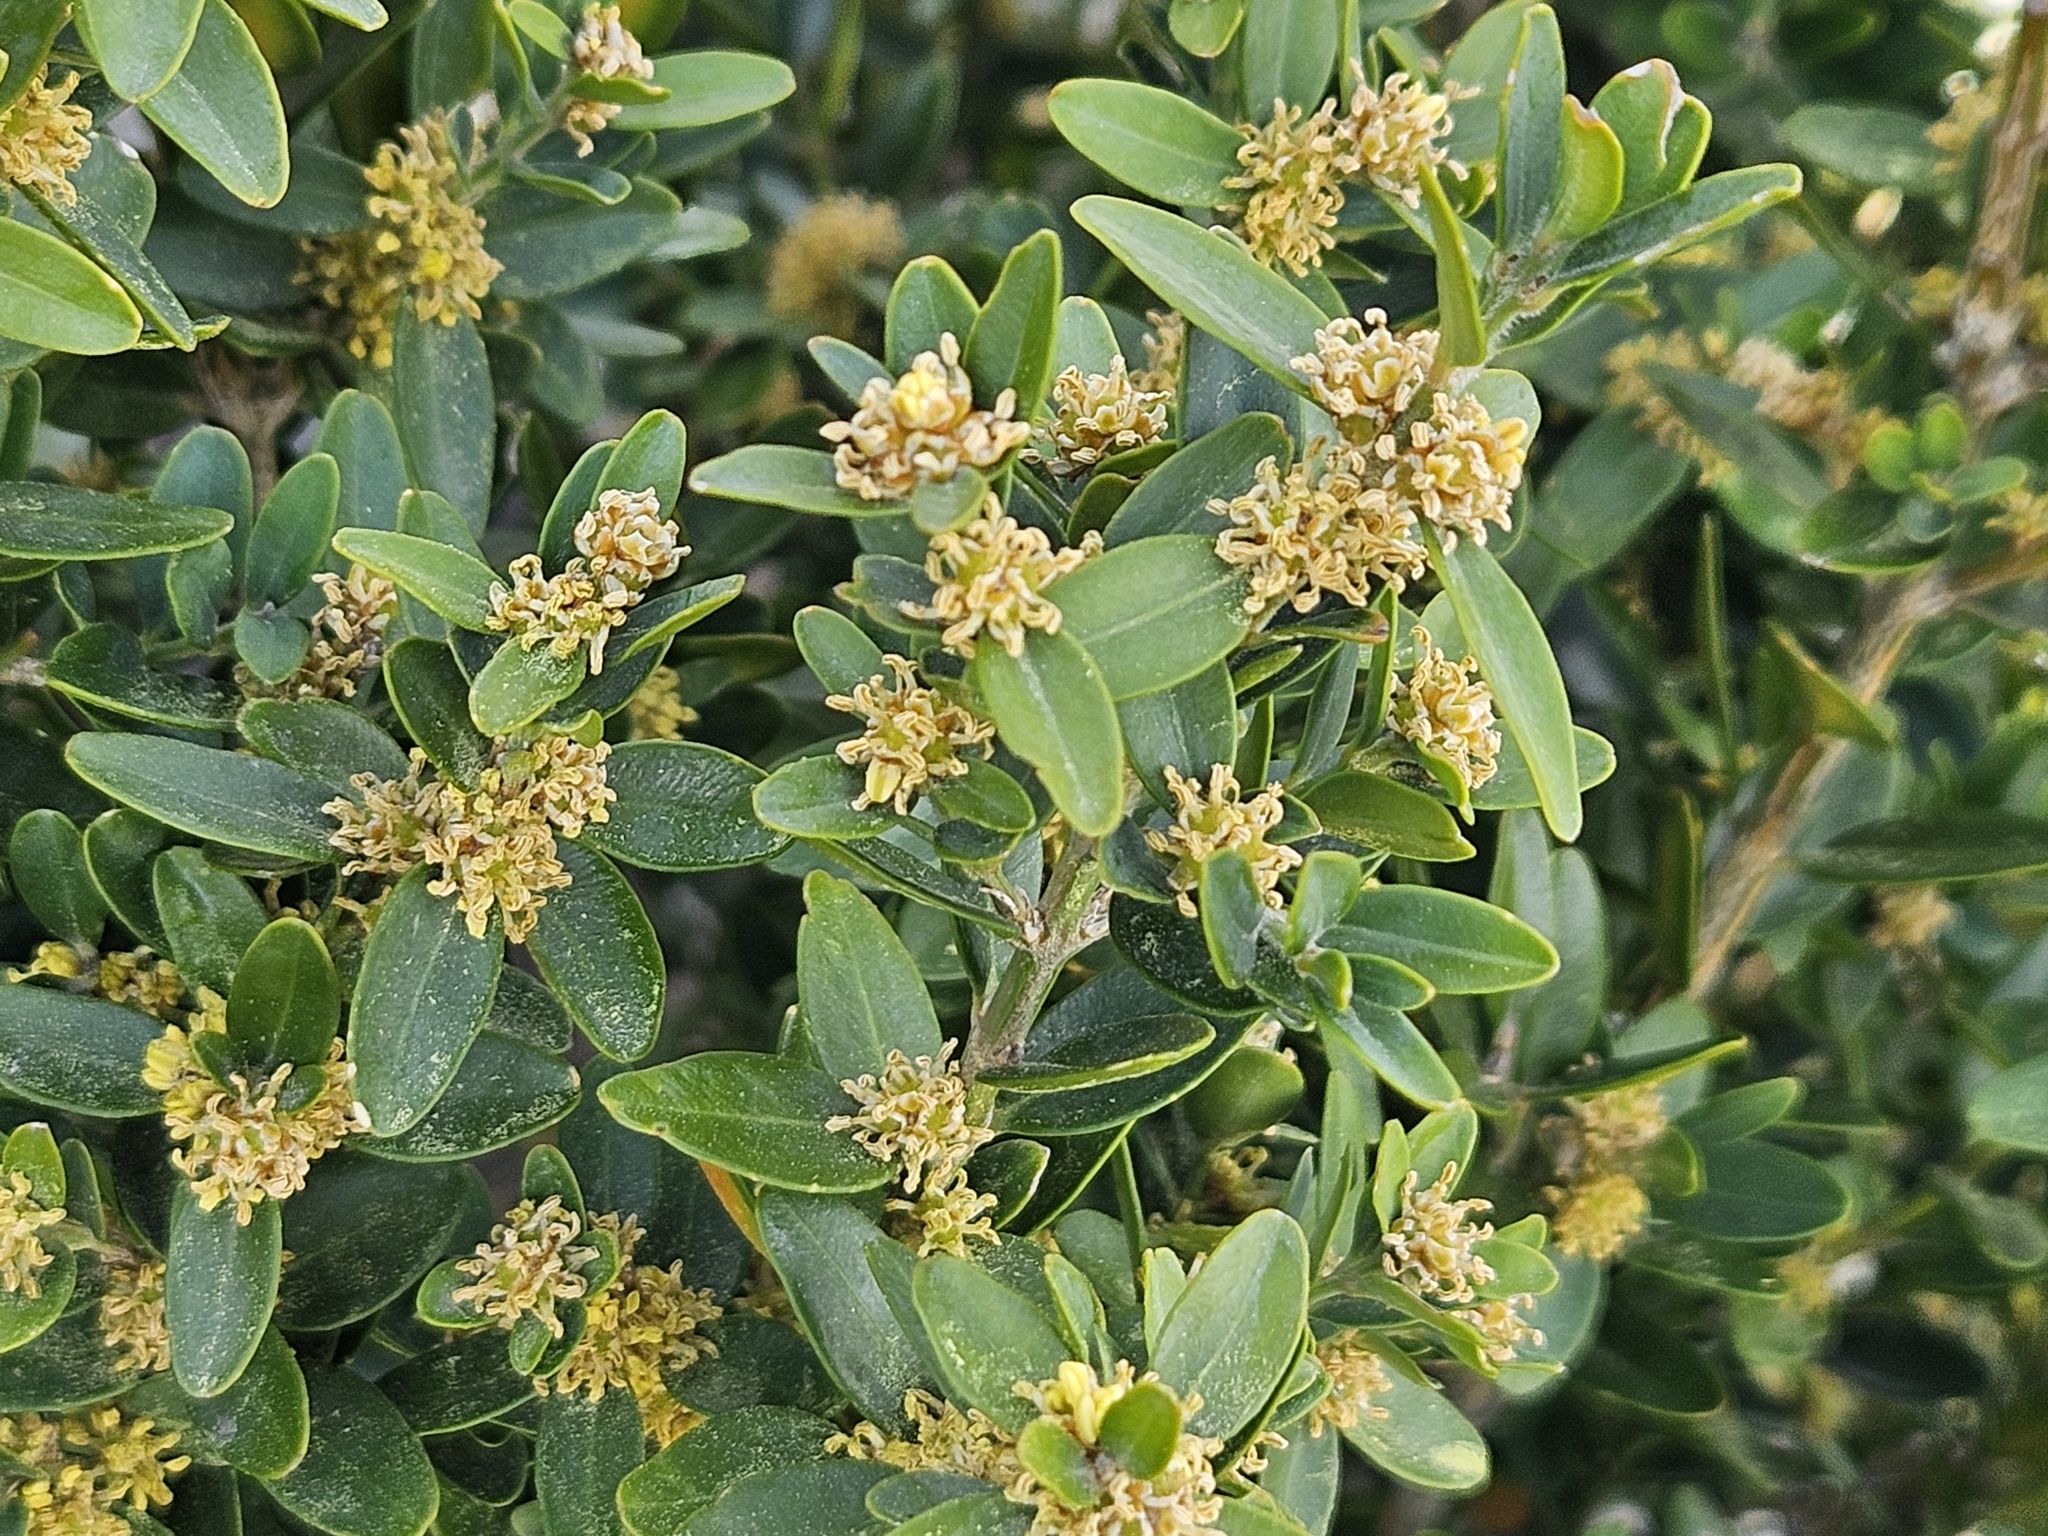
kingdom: Plantae
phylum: Tracheophyta
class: Magnoliopsida
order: Buxales
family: Buxaceae
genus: Buxus
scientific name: Buxus sempervirens
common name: Box
